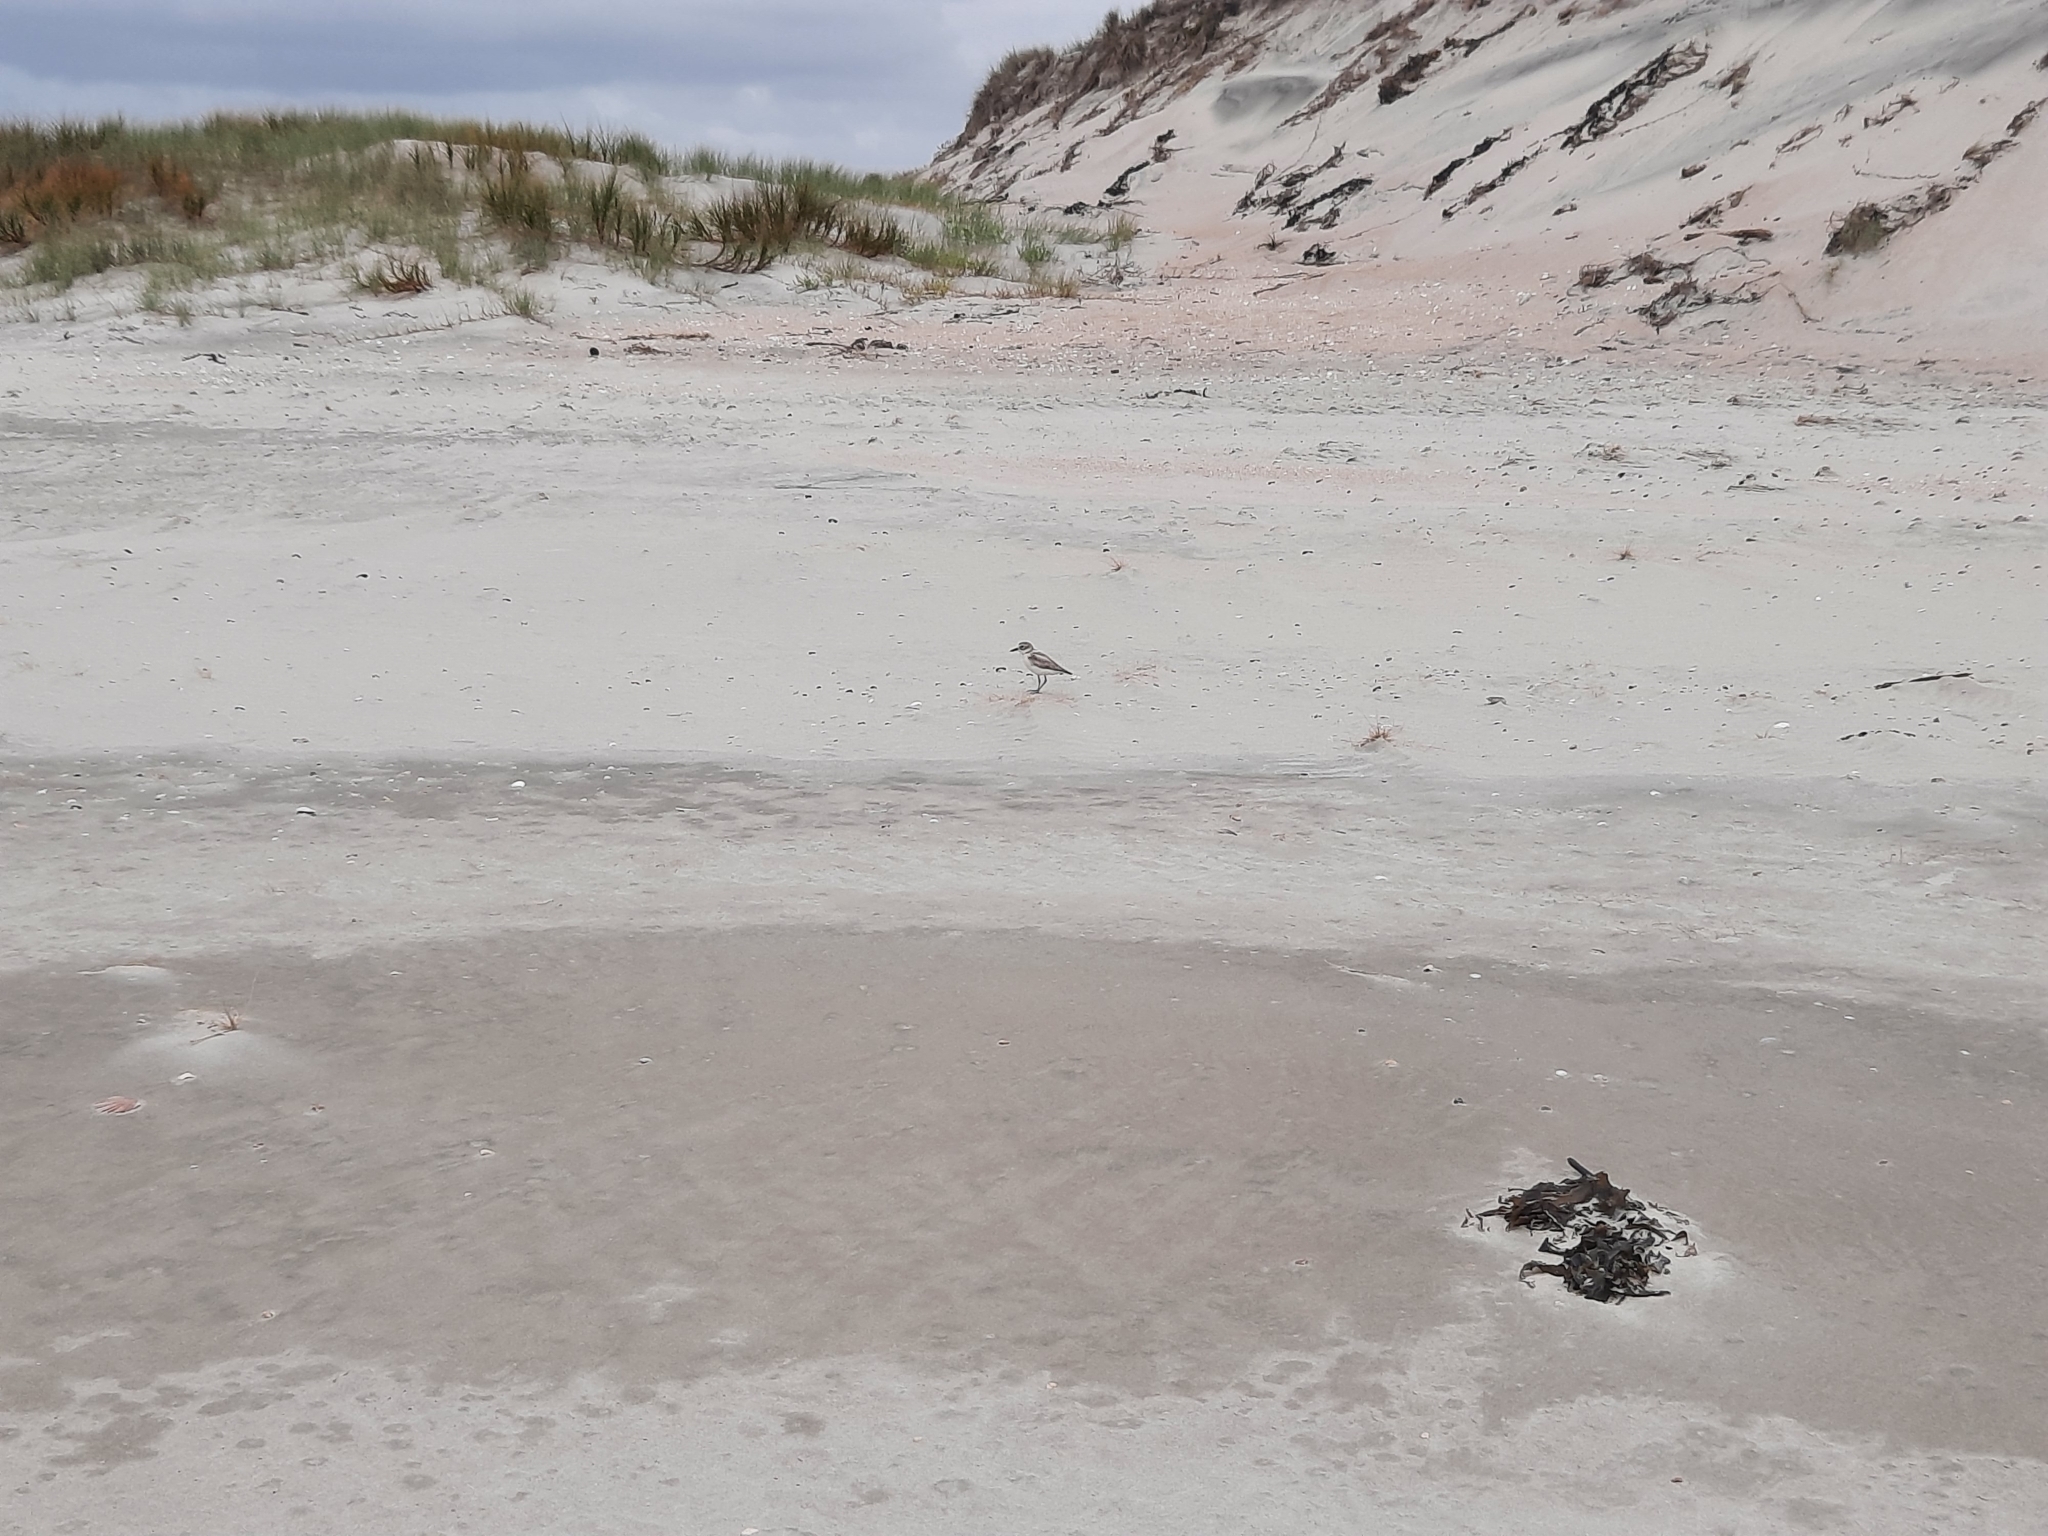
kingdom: Animalia
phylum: Chordata
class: Aves
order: Charadriiformes
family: Charadriidae
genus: Anarhynchus
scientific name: Anarhynchus
